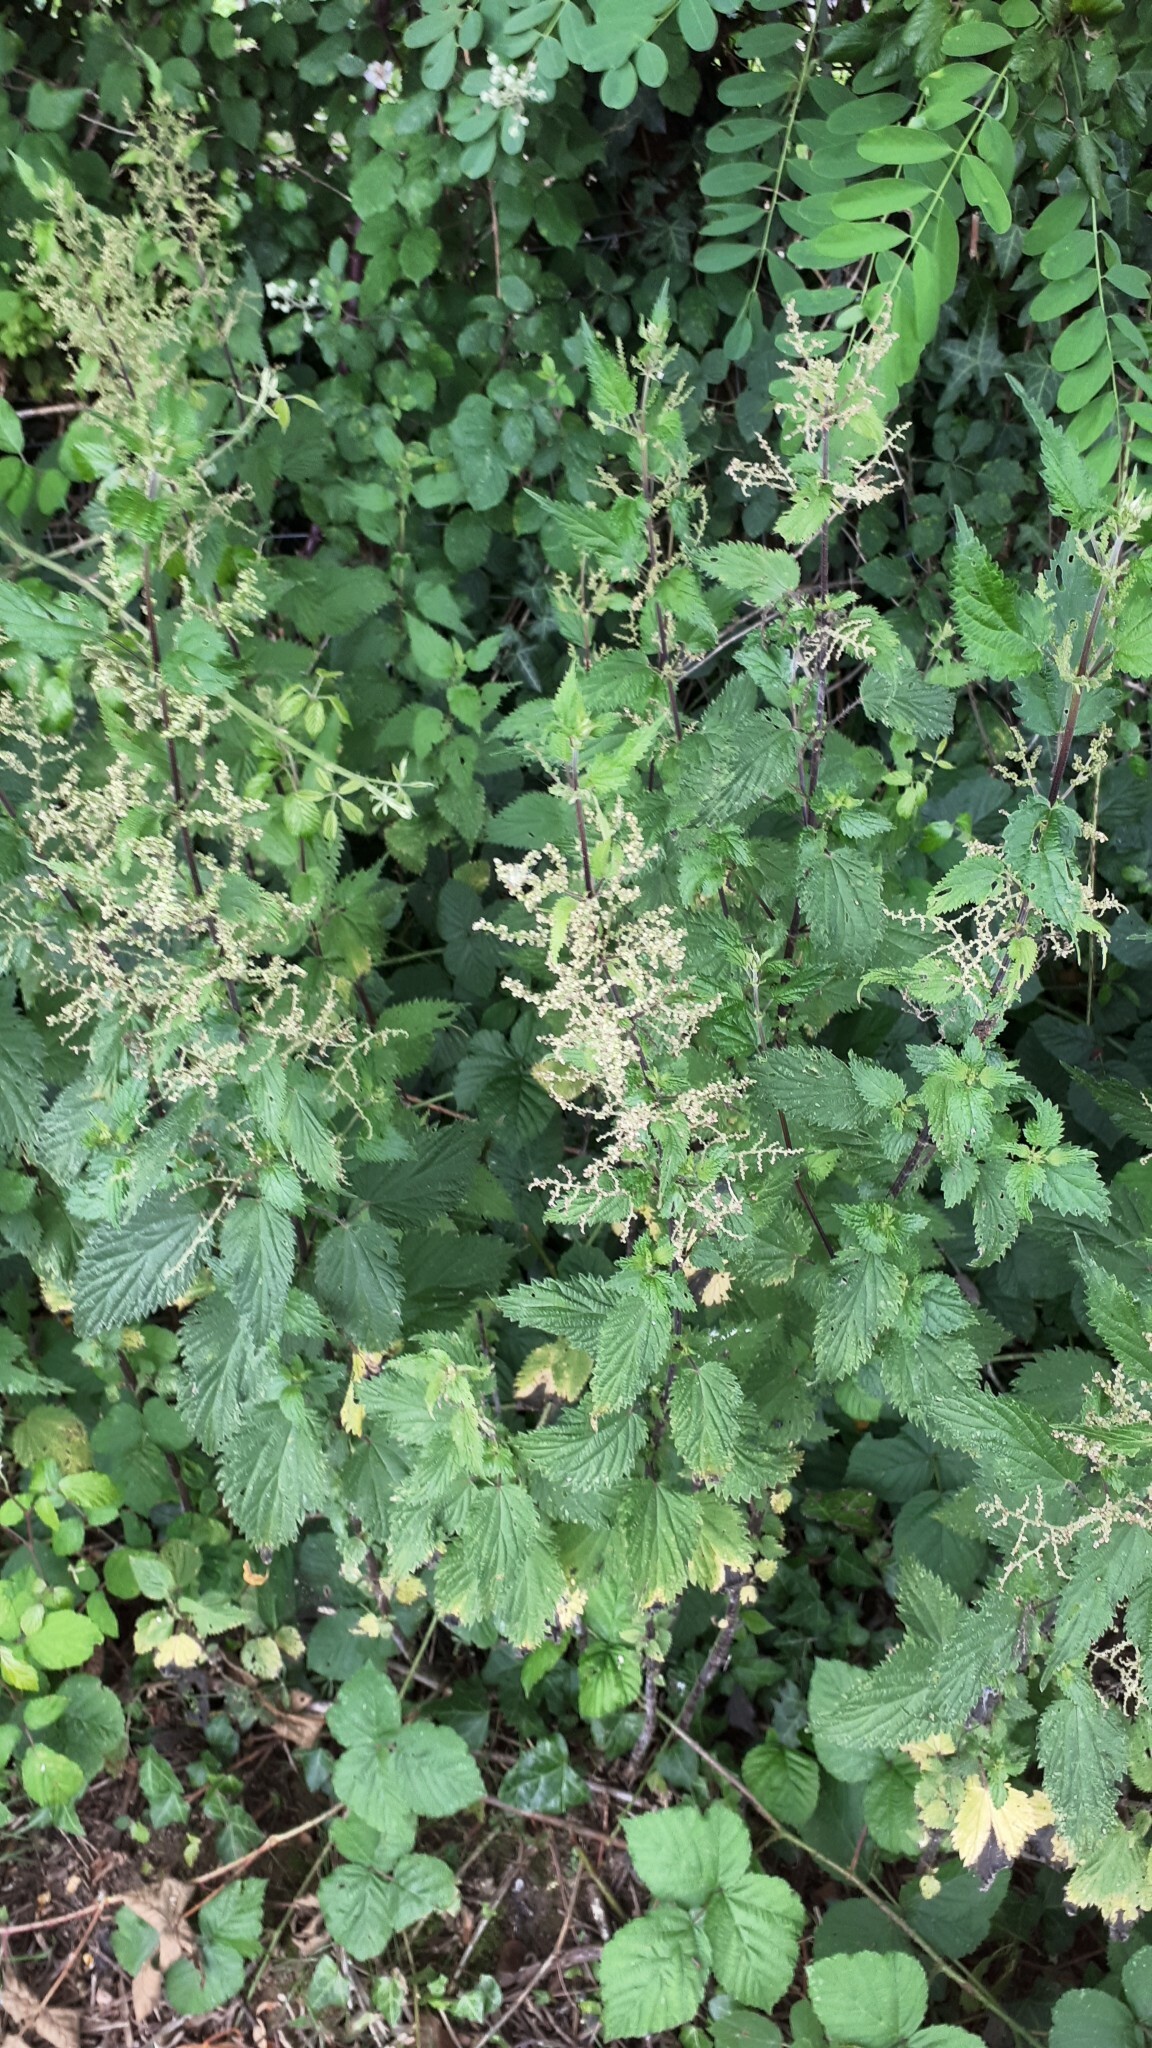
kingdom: Plantae
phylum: Tracheophyta
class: Magnoliopsida
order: Rosales
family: Urticaceae
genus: Urtica
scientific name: Urtica dioica
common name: Common nettle
